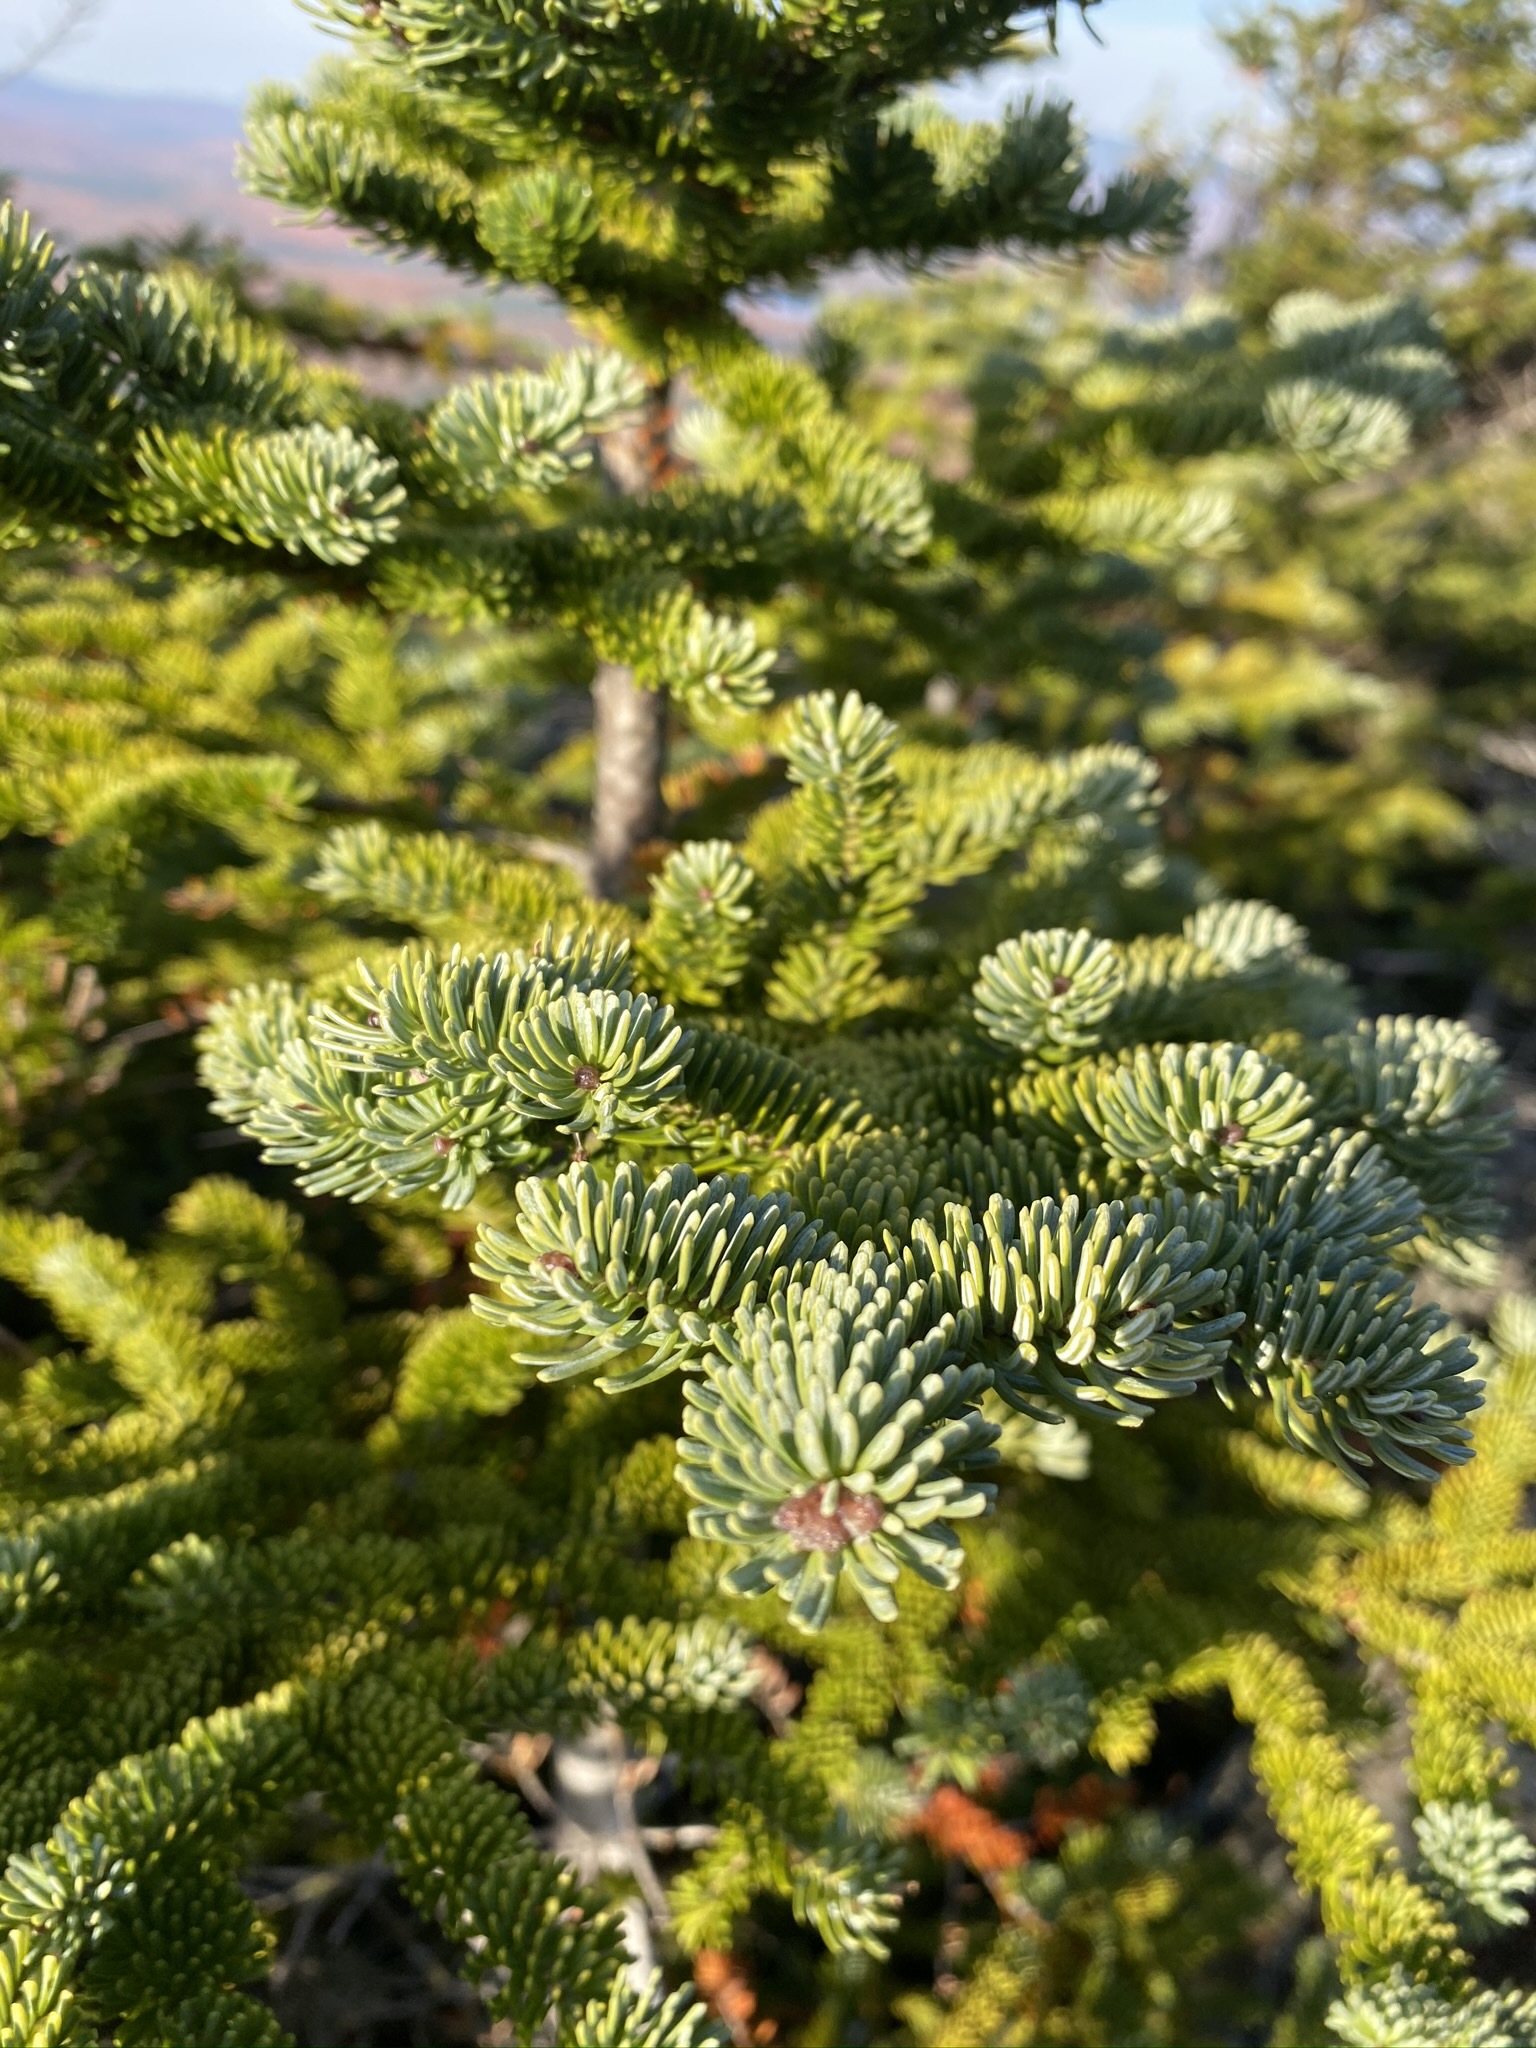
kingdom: Plantae
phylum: Tracheophyta
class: Pinopsida
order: Pinales
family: Pinaceae
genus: Abies
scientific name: Abies balsamea
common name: Balsam fir
